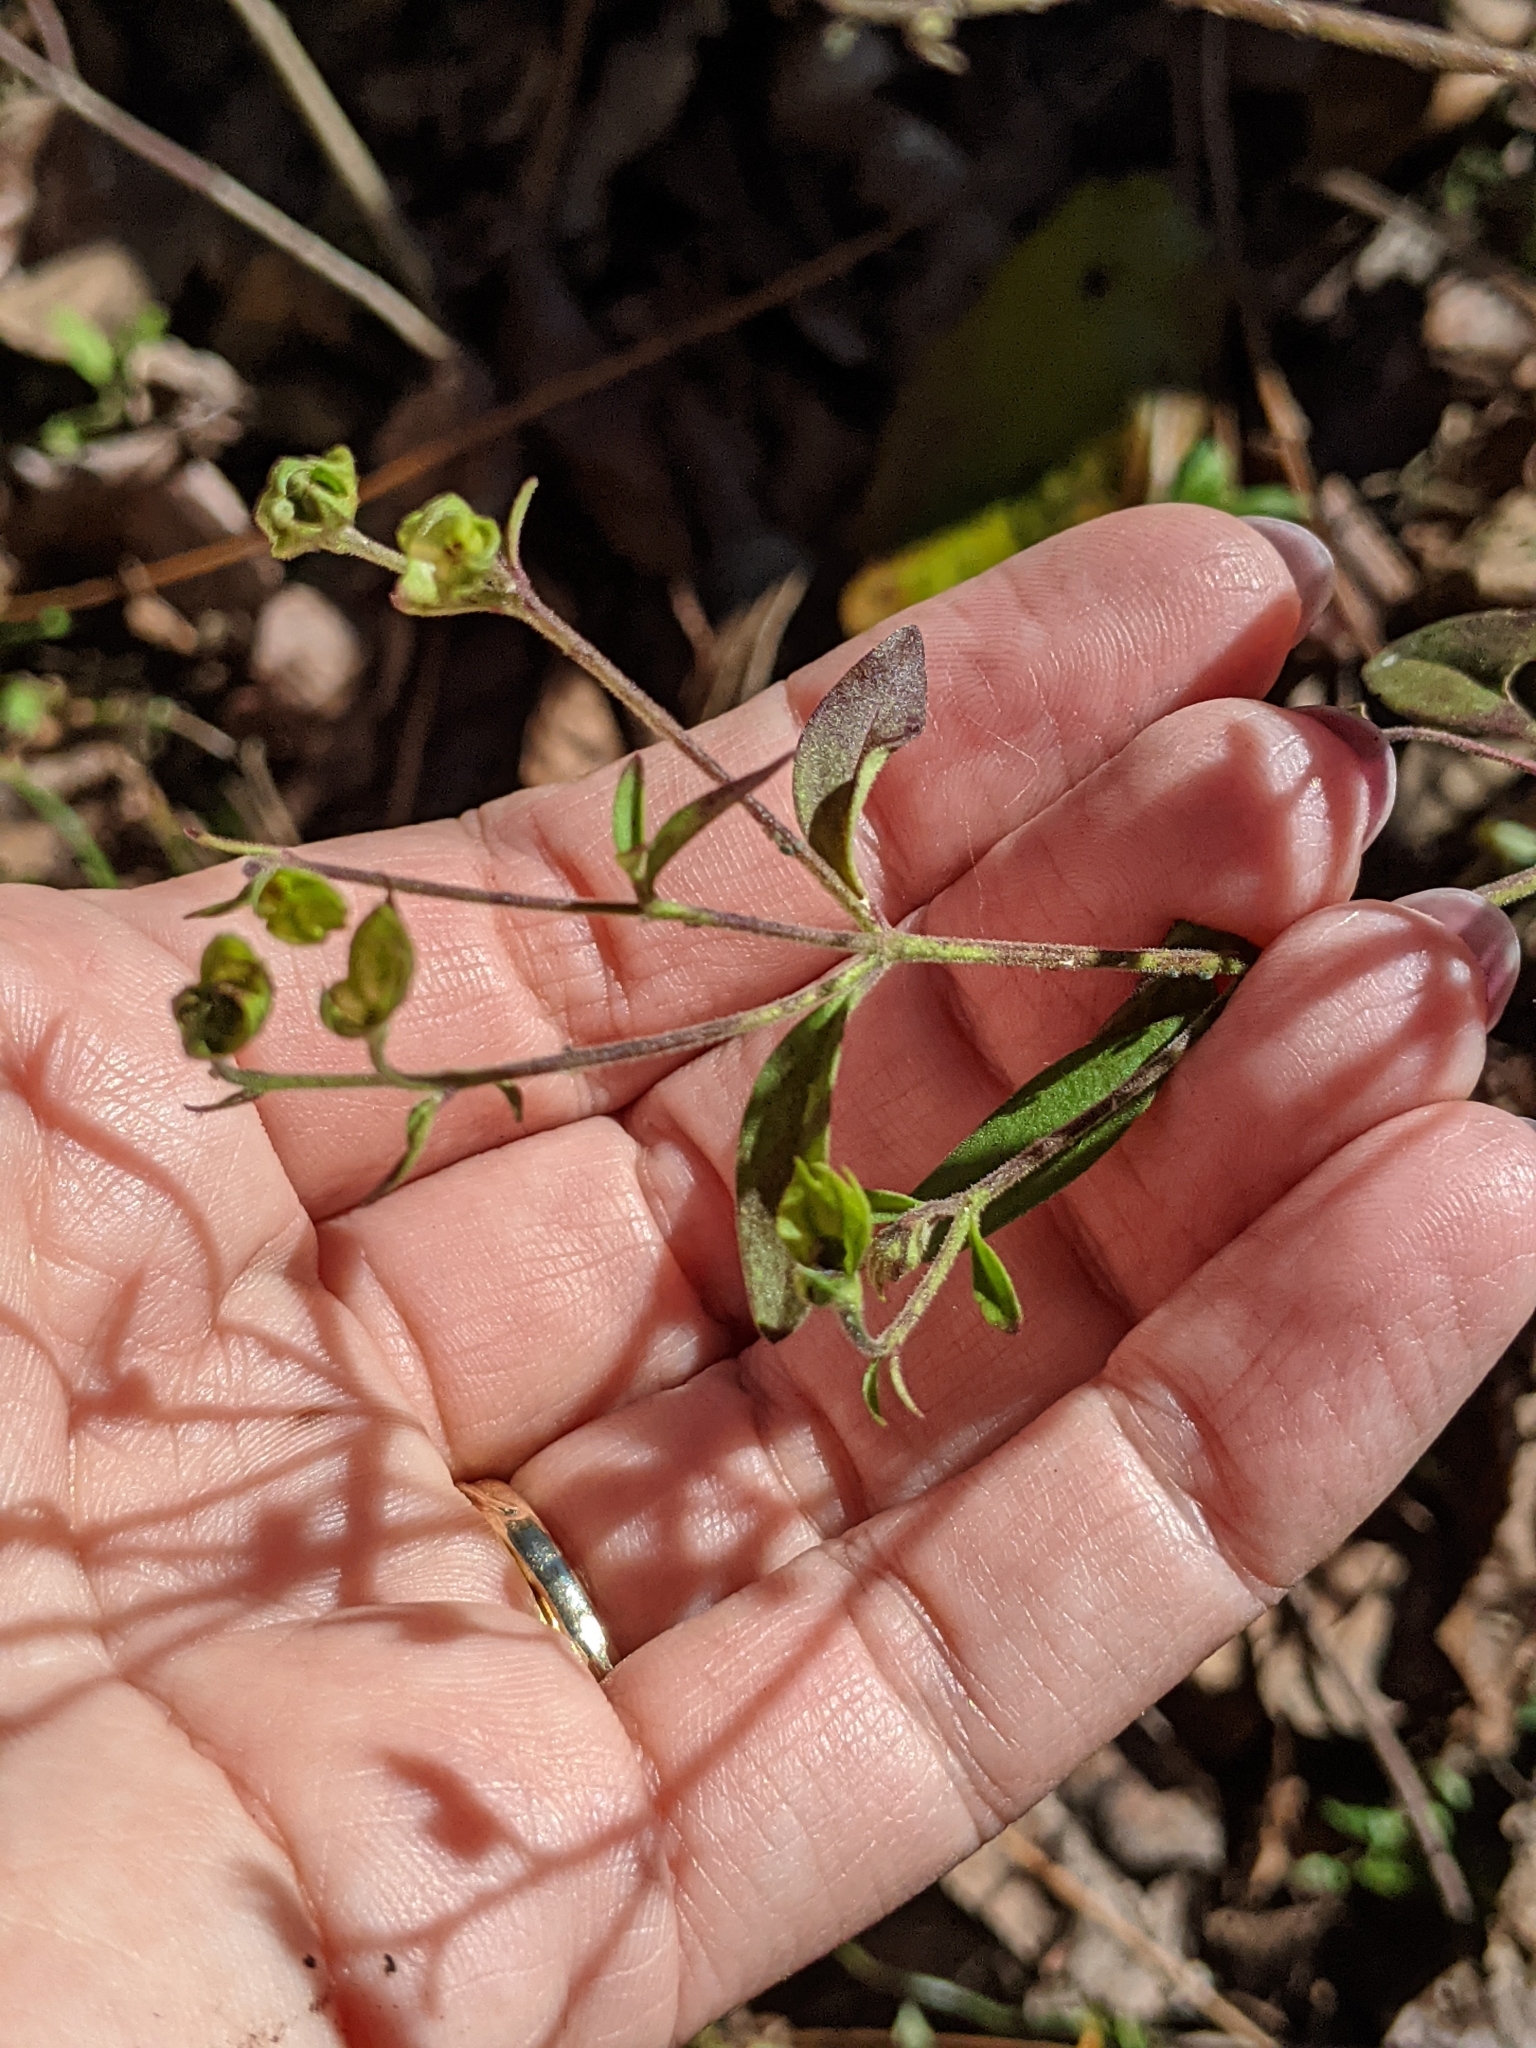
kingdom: Plantae
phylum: Tracheophyta
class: Magnoliopsida
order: Lamiales
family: Lamiaceae
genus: Trichostema
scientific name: Trichostema fruticosum
